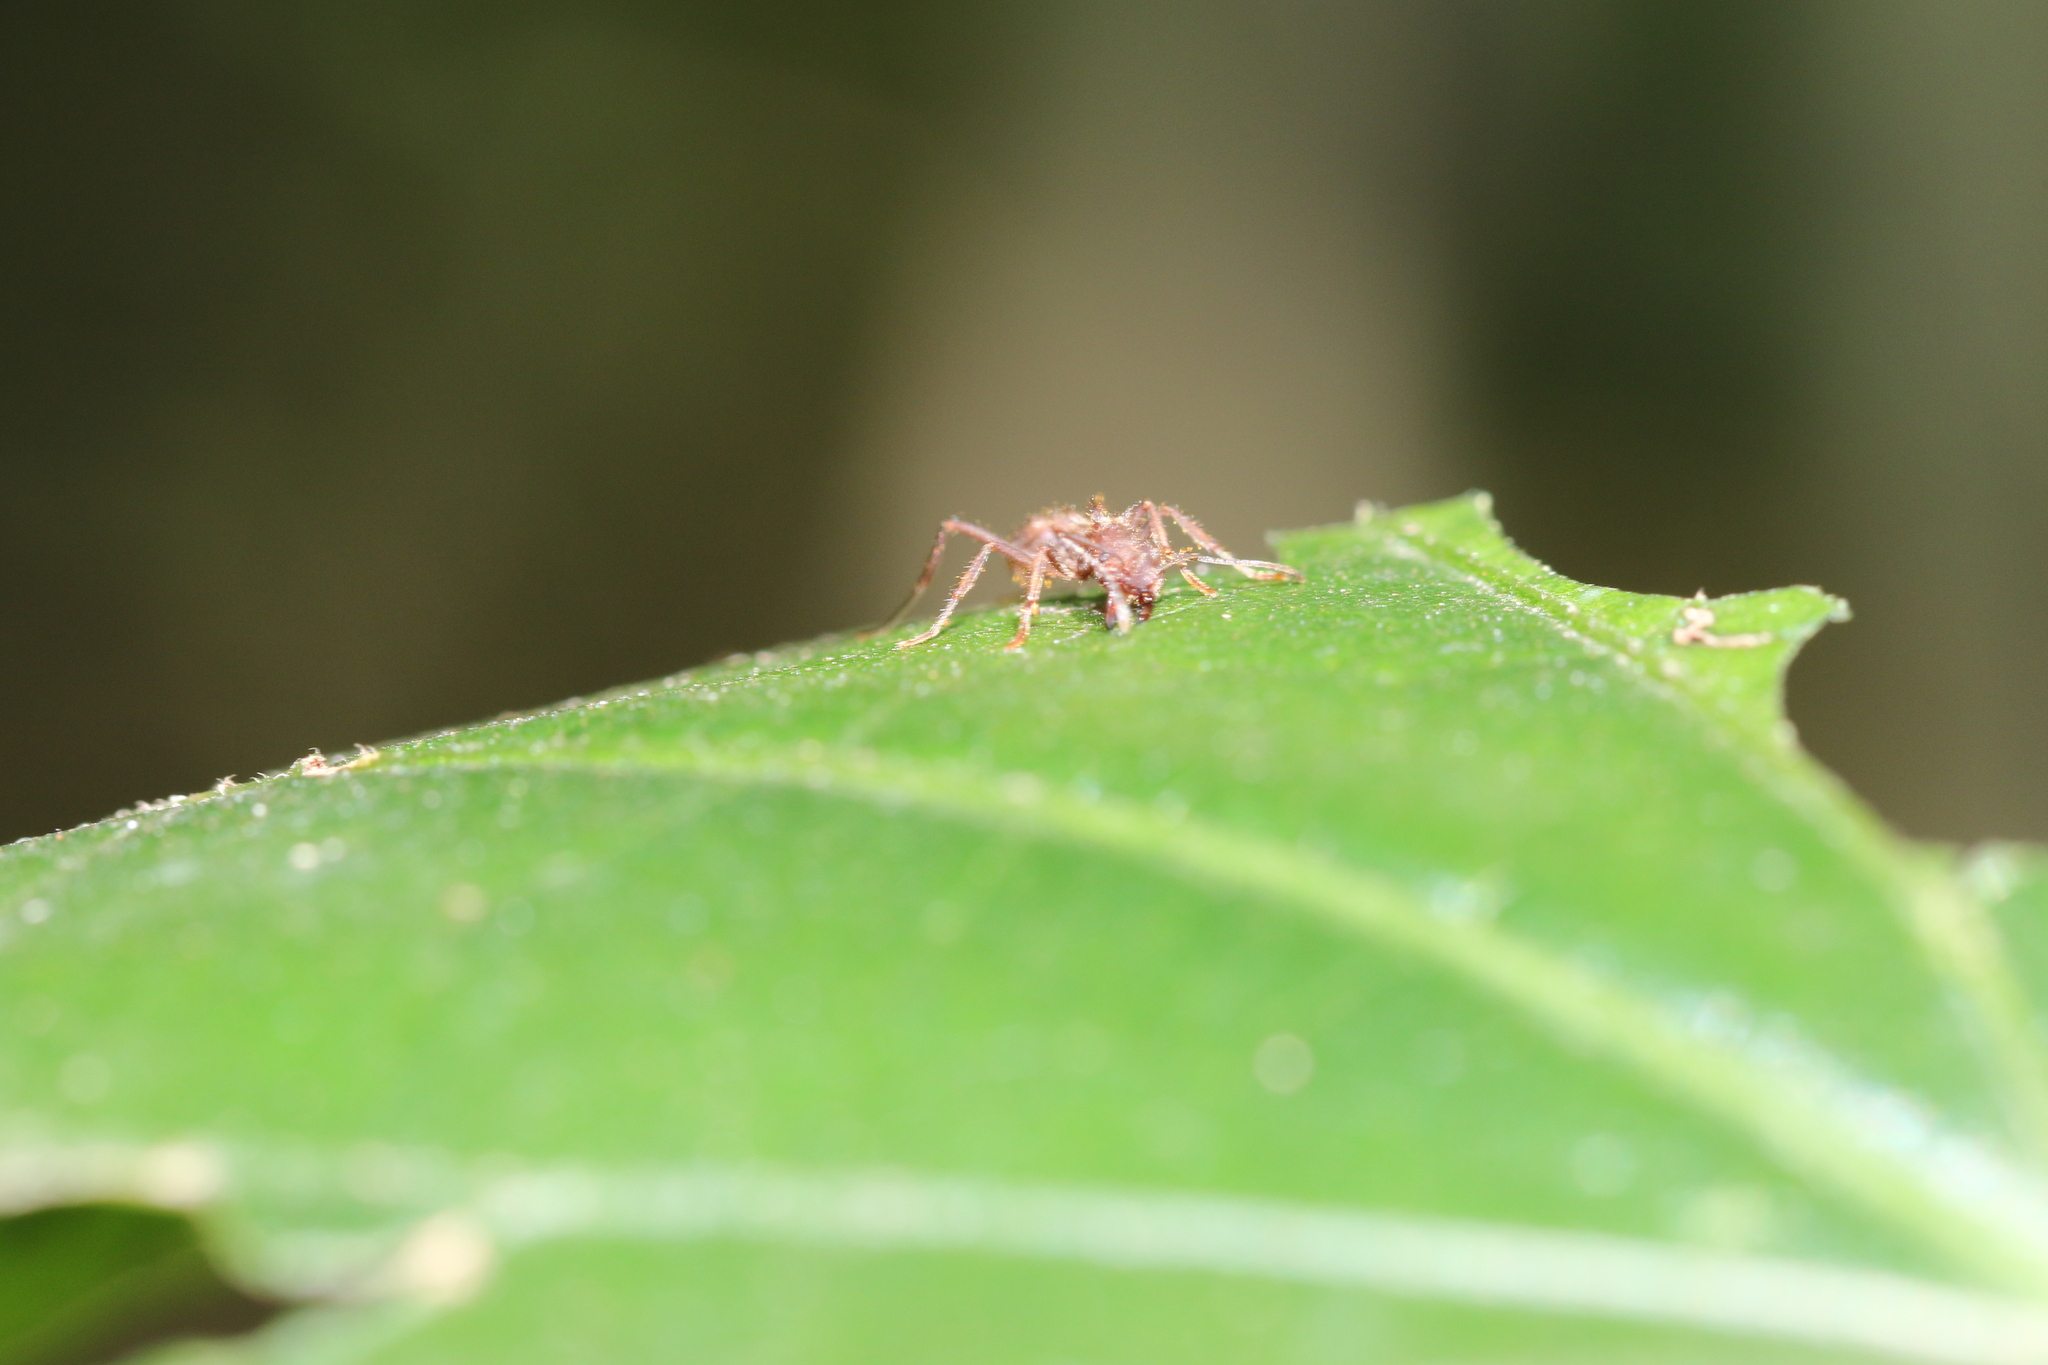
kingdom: Animalia
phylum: Arthropoda
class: Insecta
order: Hymenoptera
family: Formicidae
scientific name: Formicidae
